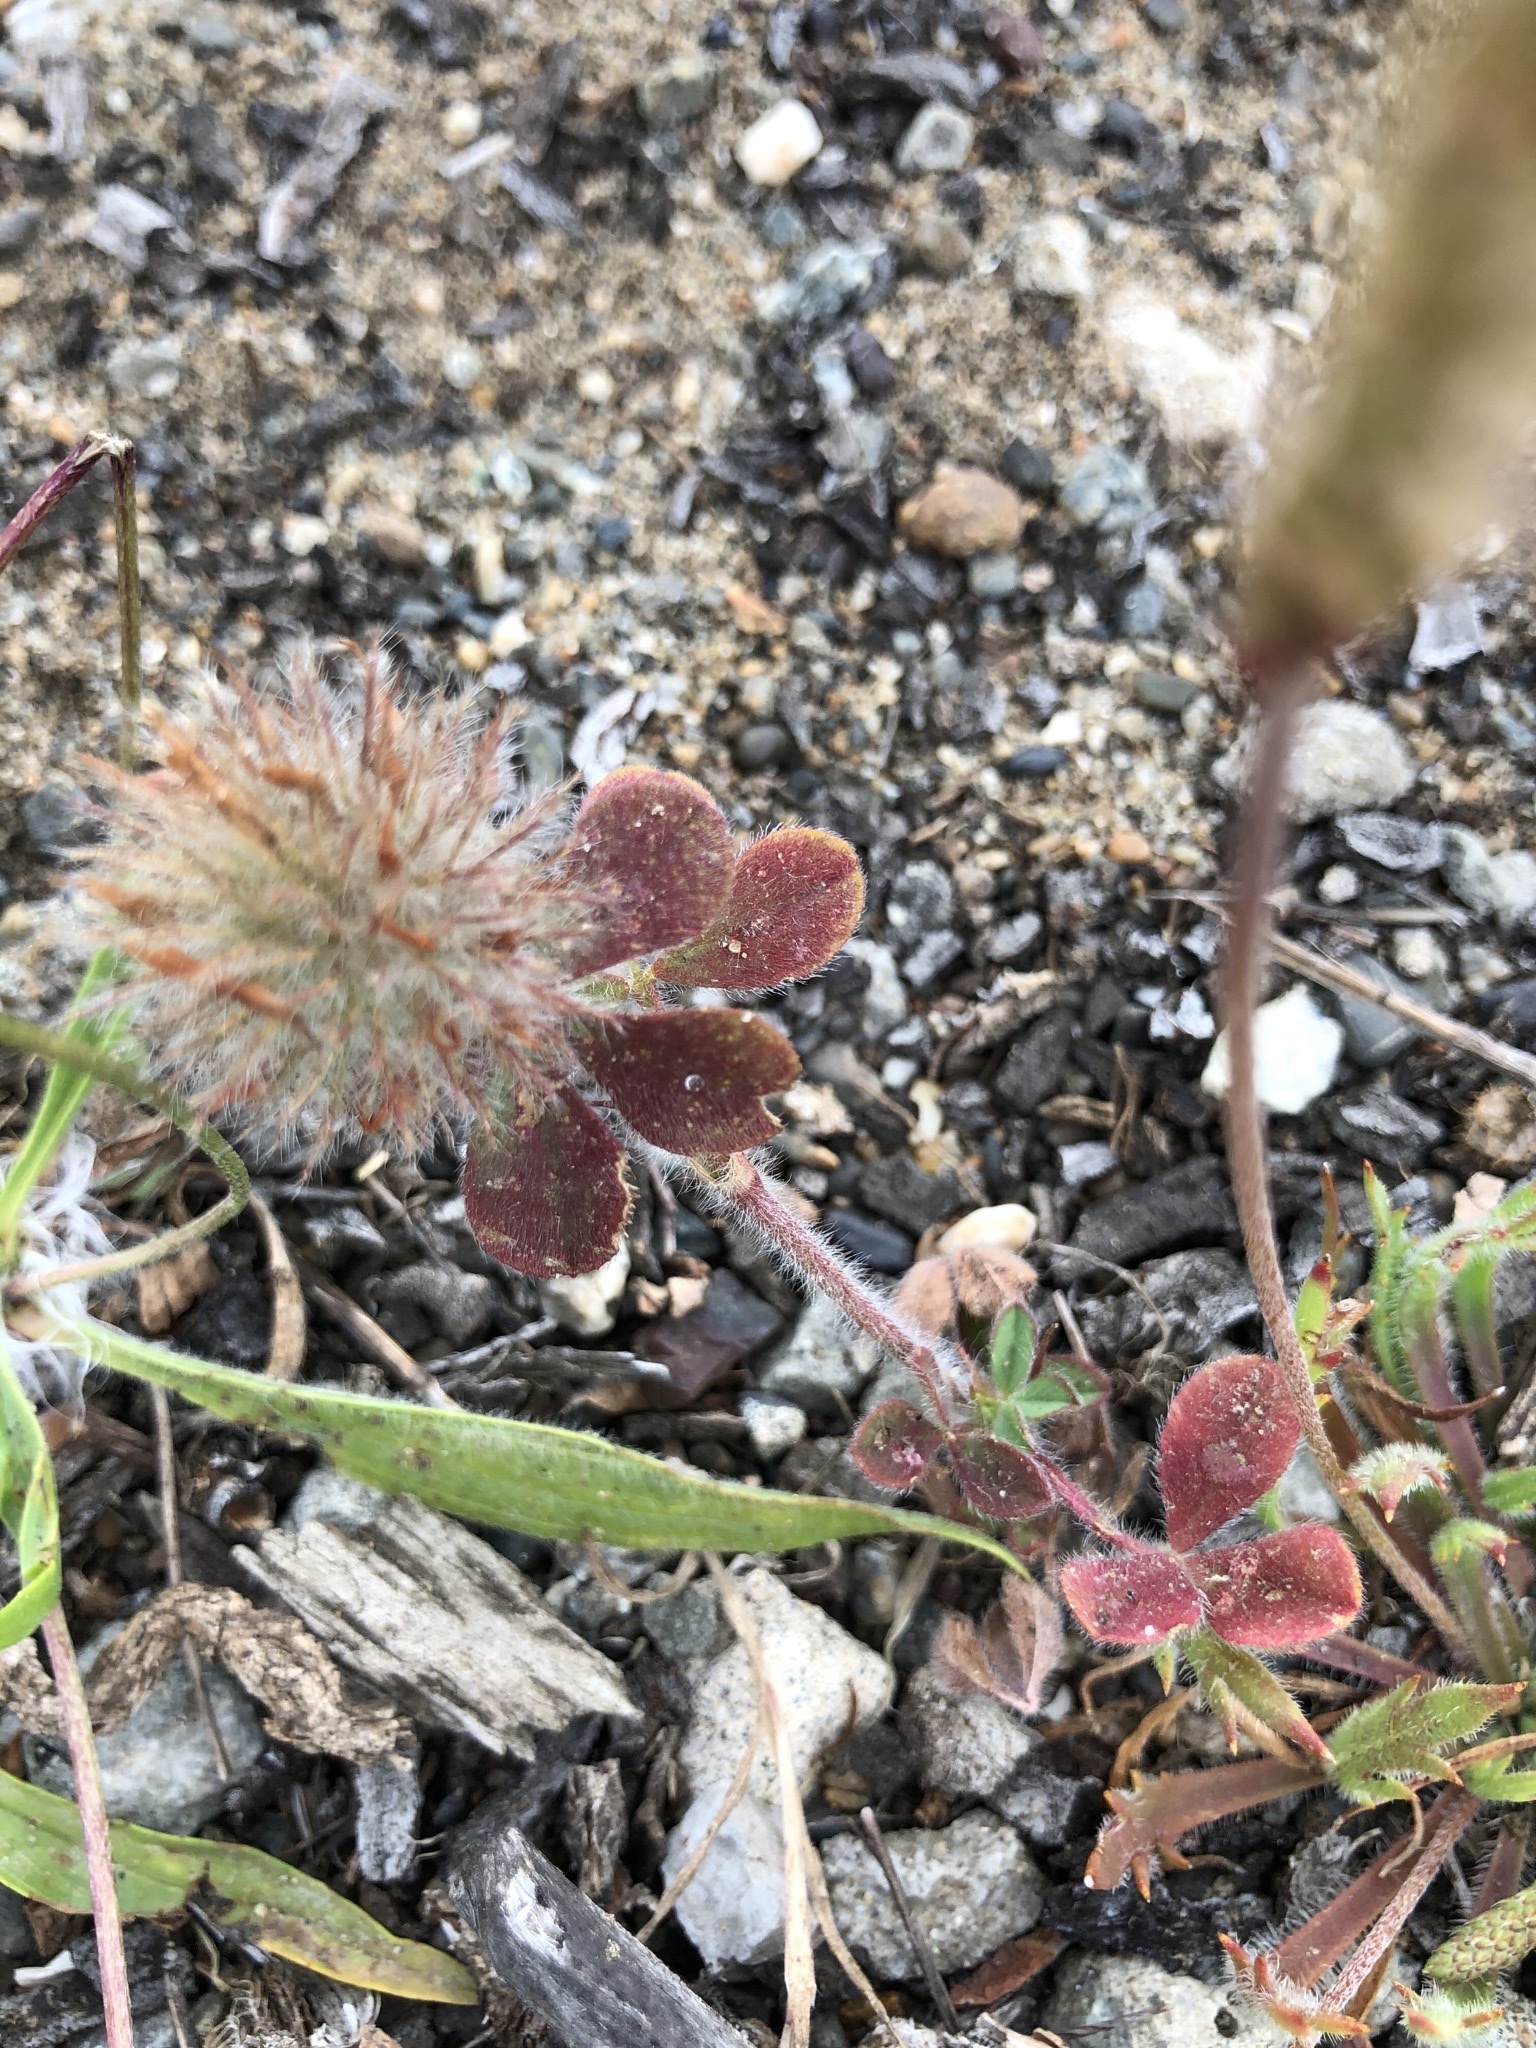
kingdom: Plantae
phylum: Tracheophyta
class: Magnoliopsida
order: Fabales
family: Fabaceae
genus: Trifolium
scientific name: Trifolium hirtum
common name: Rose clover
